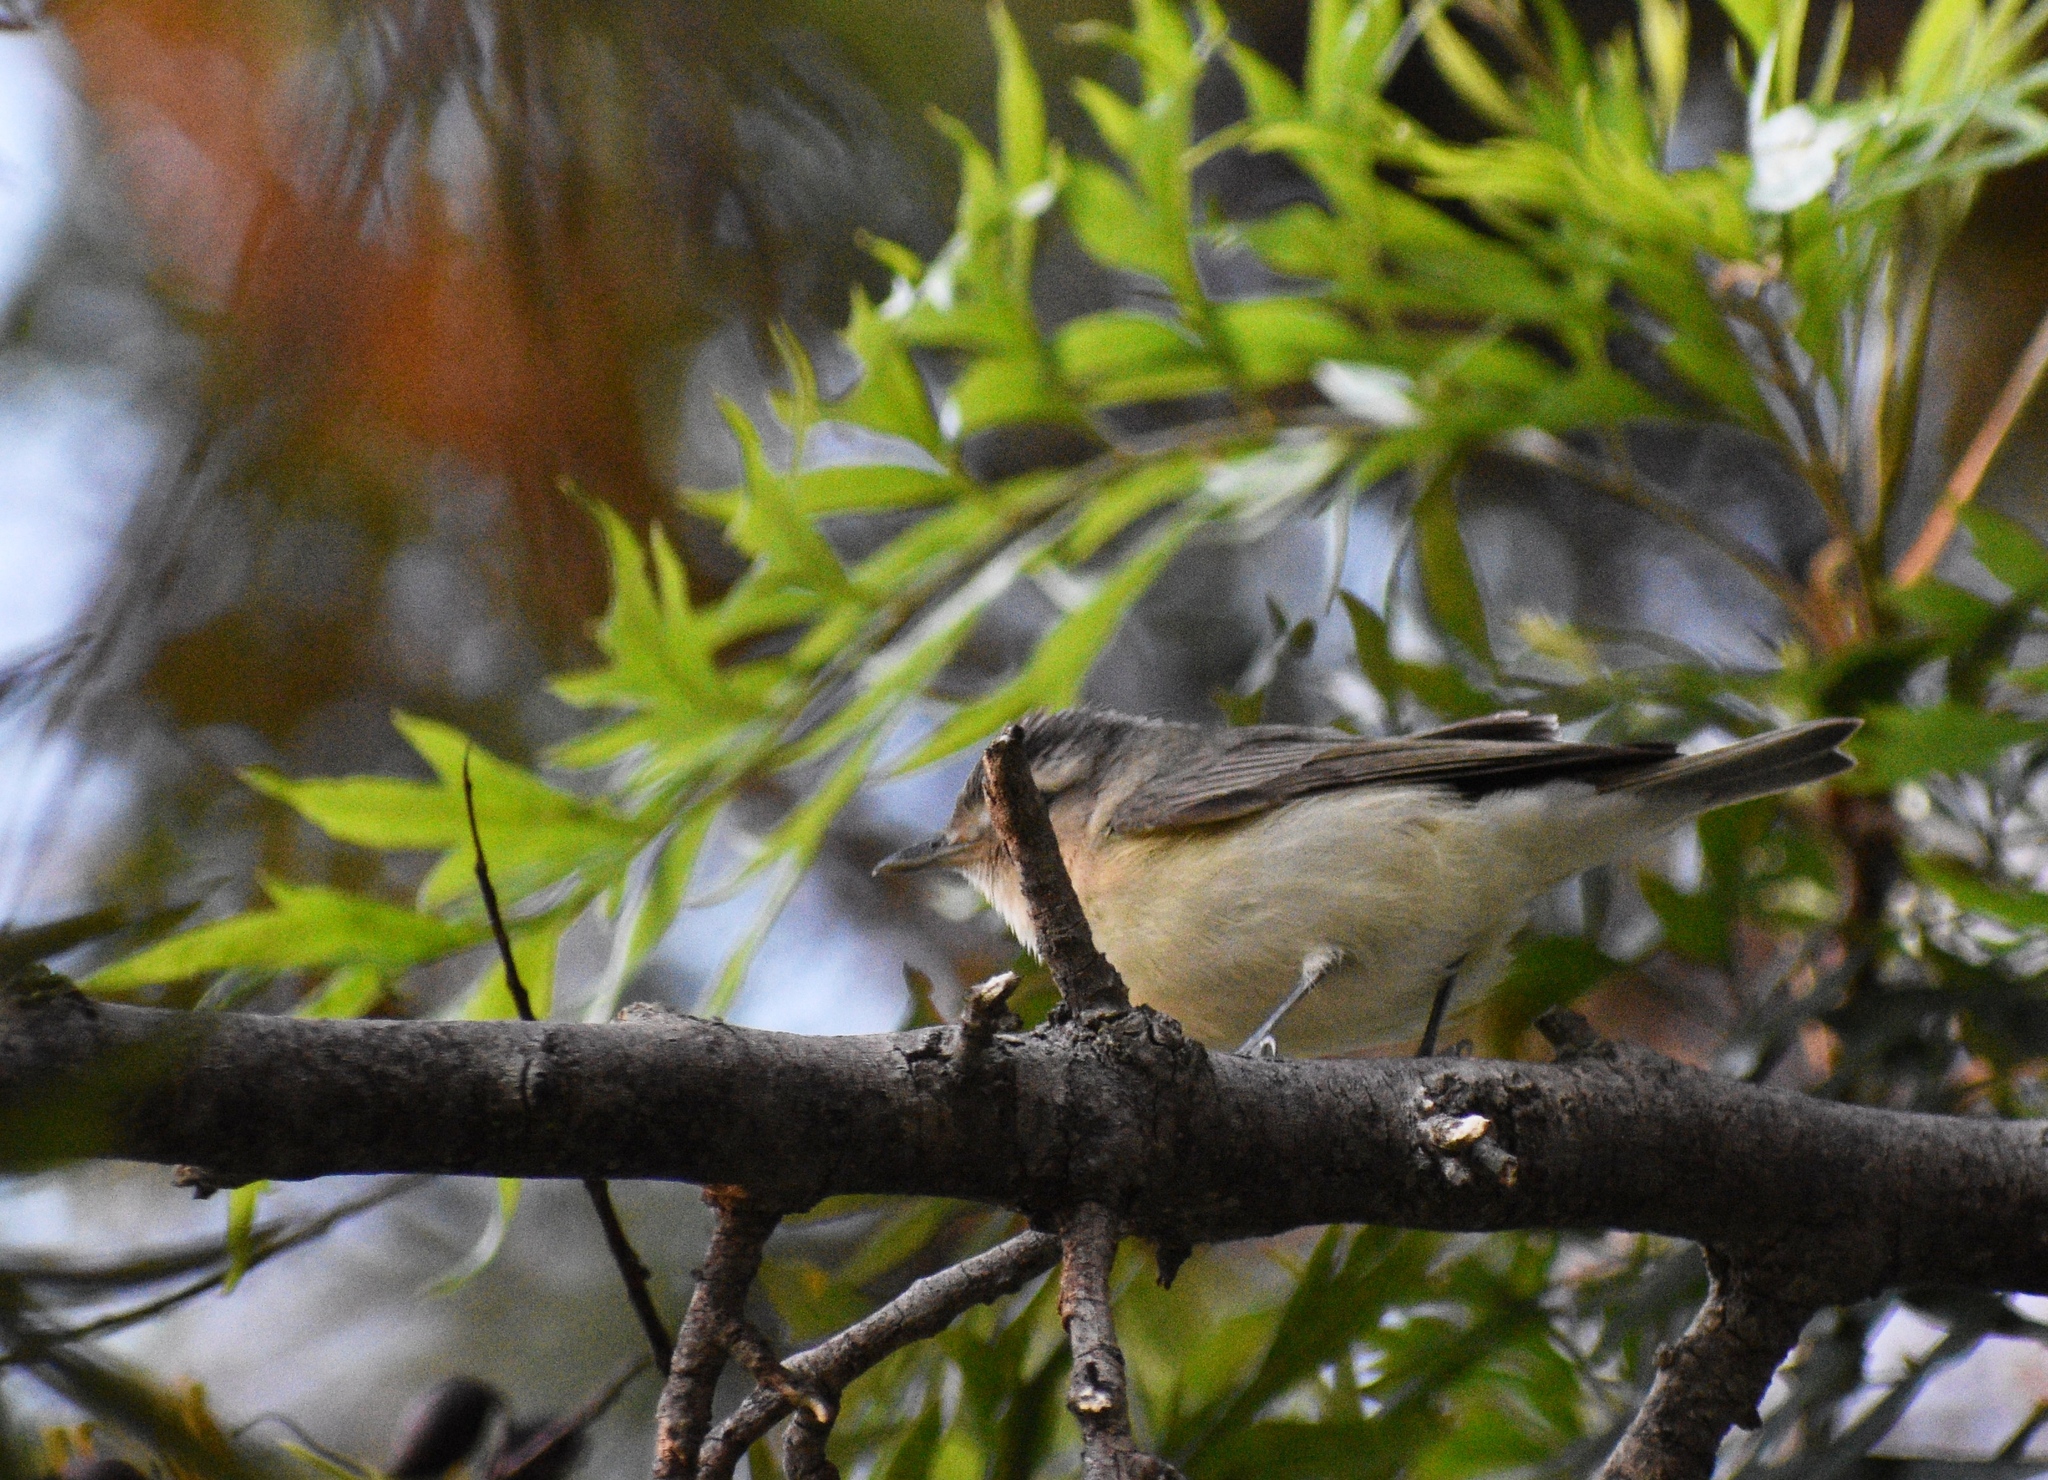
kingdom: Animalia
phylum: Chordata
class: Aves
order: Passeriformes
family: Vireonidae
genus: Vireo
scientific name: Vireo gilvus
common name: Warbling vireo
